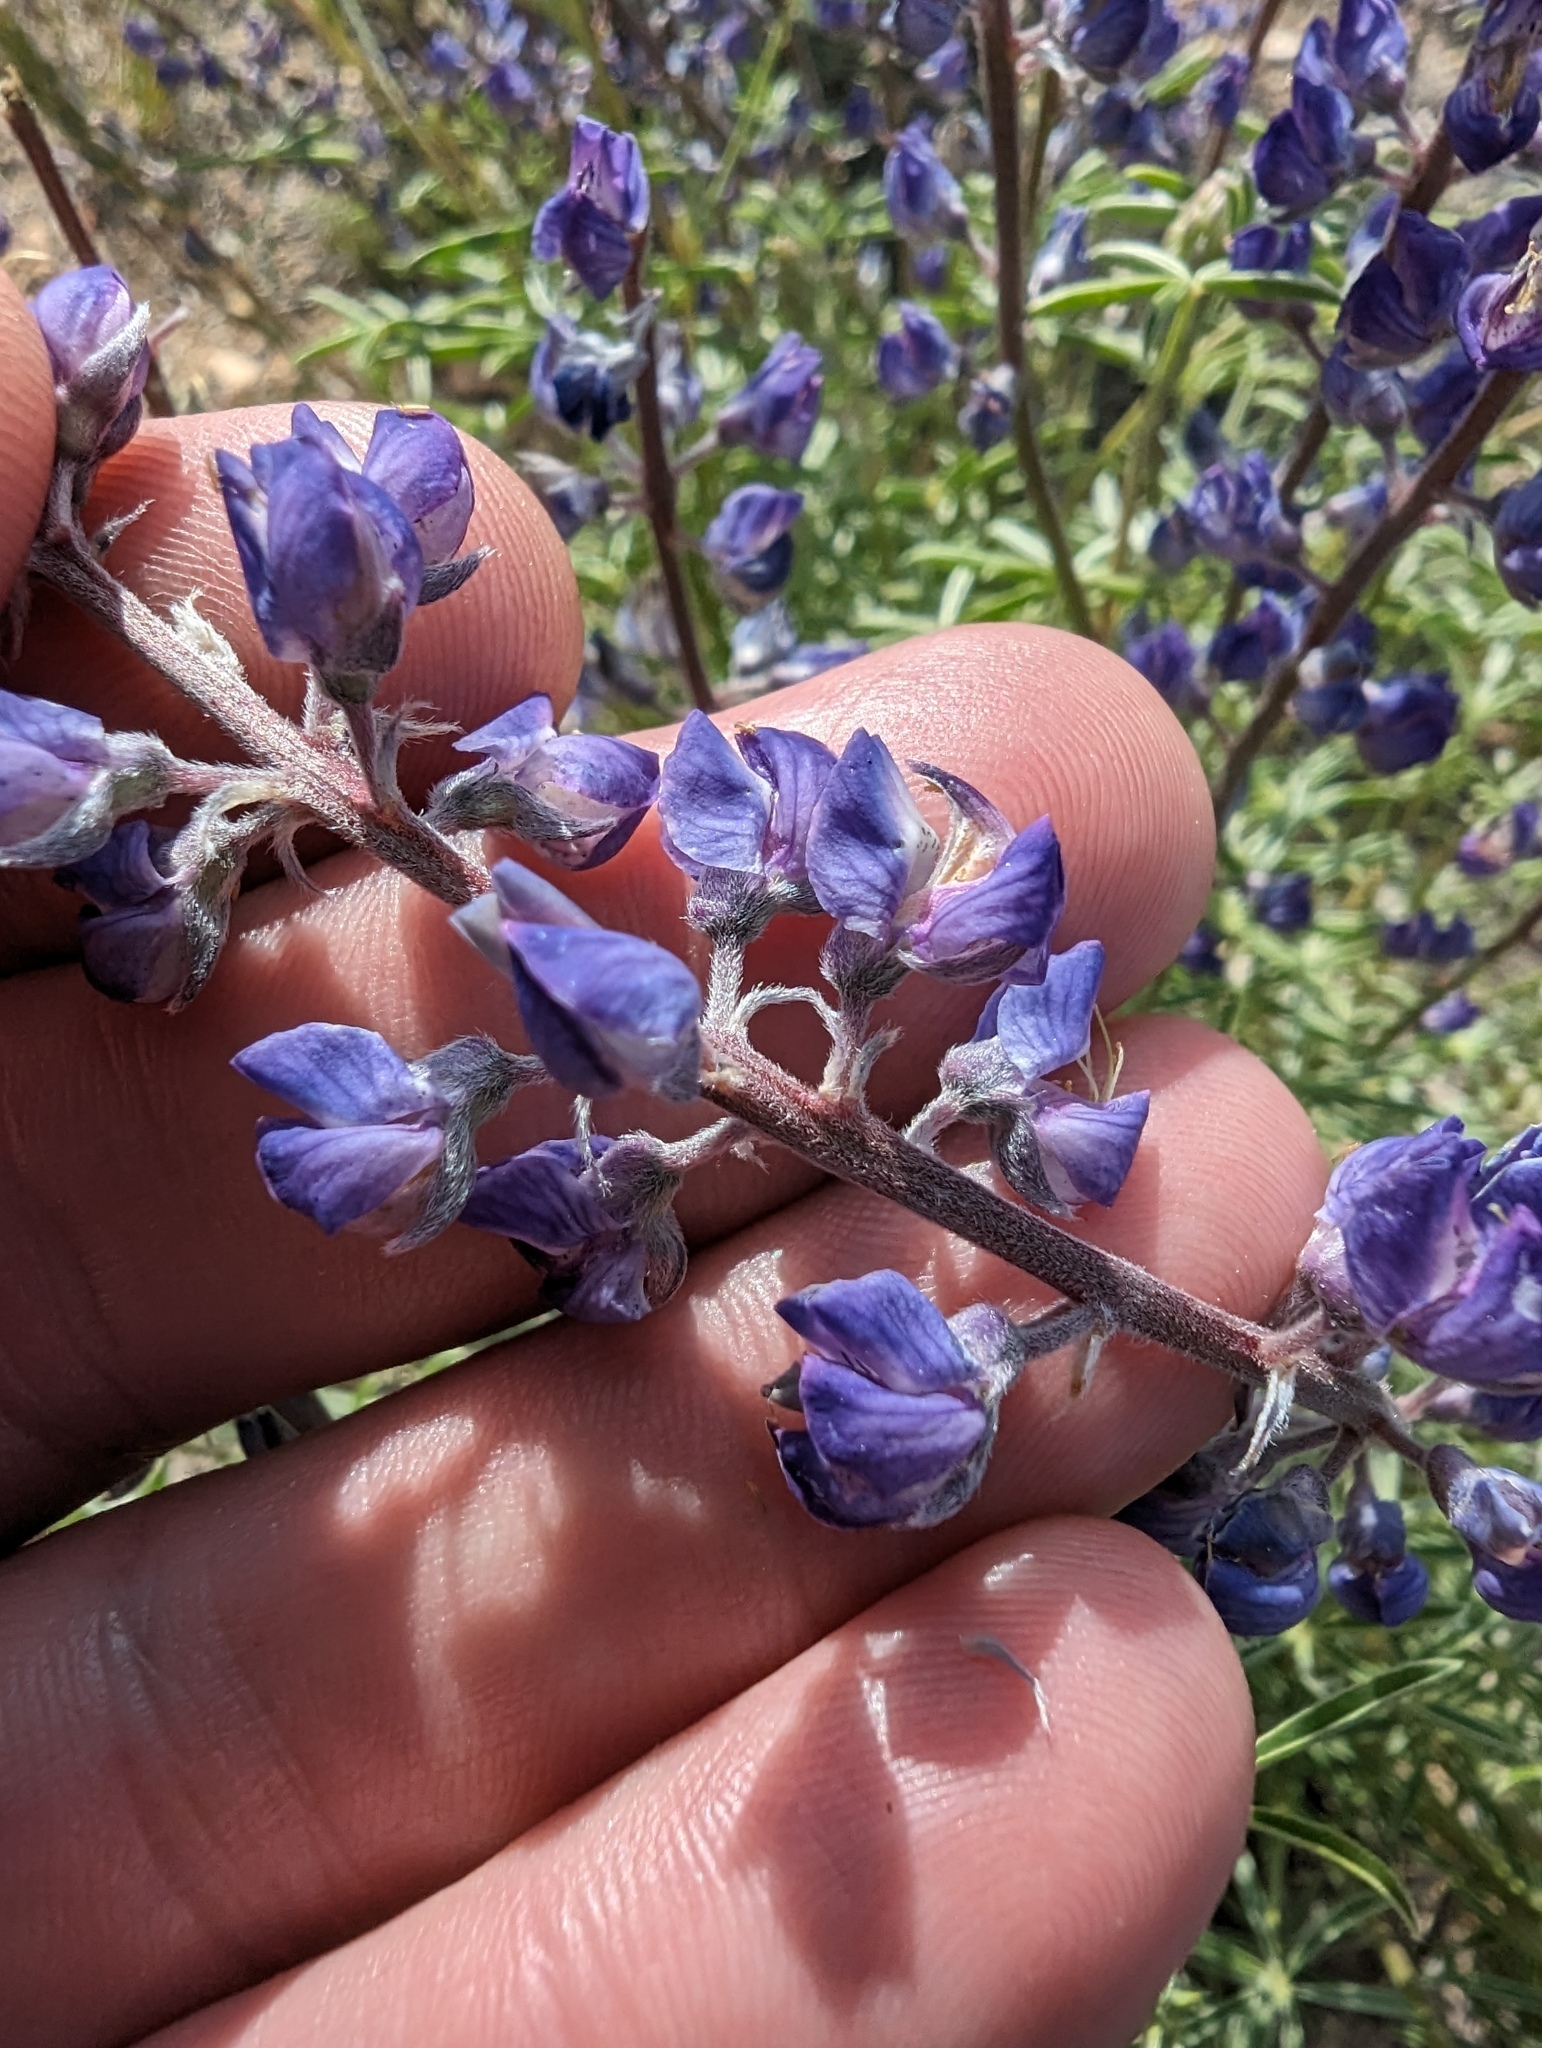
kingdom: Plantae
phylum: Tracheophyta
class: Magnoliopsida
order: Fabales
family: Fabaceae
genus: Lupinus
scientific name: Lupinus argenteus
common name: Silvery lupine
